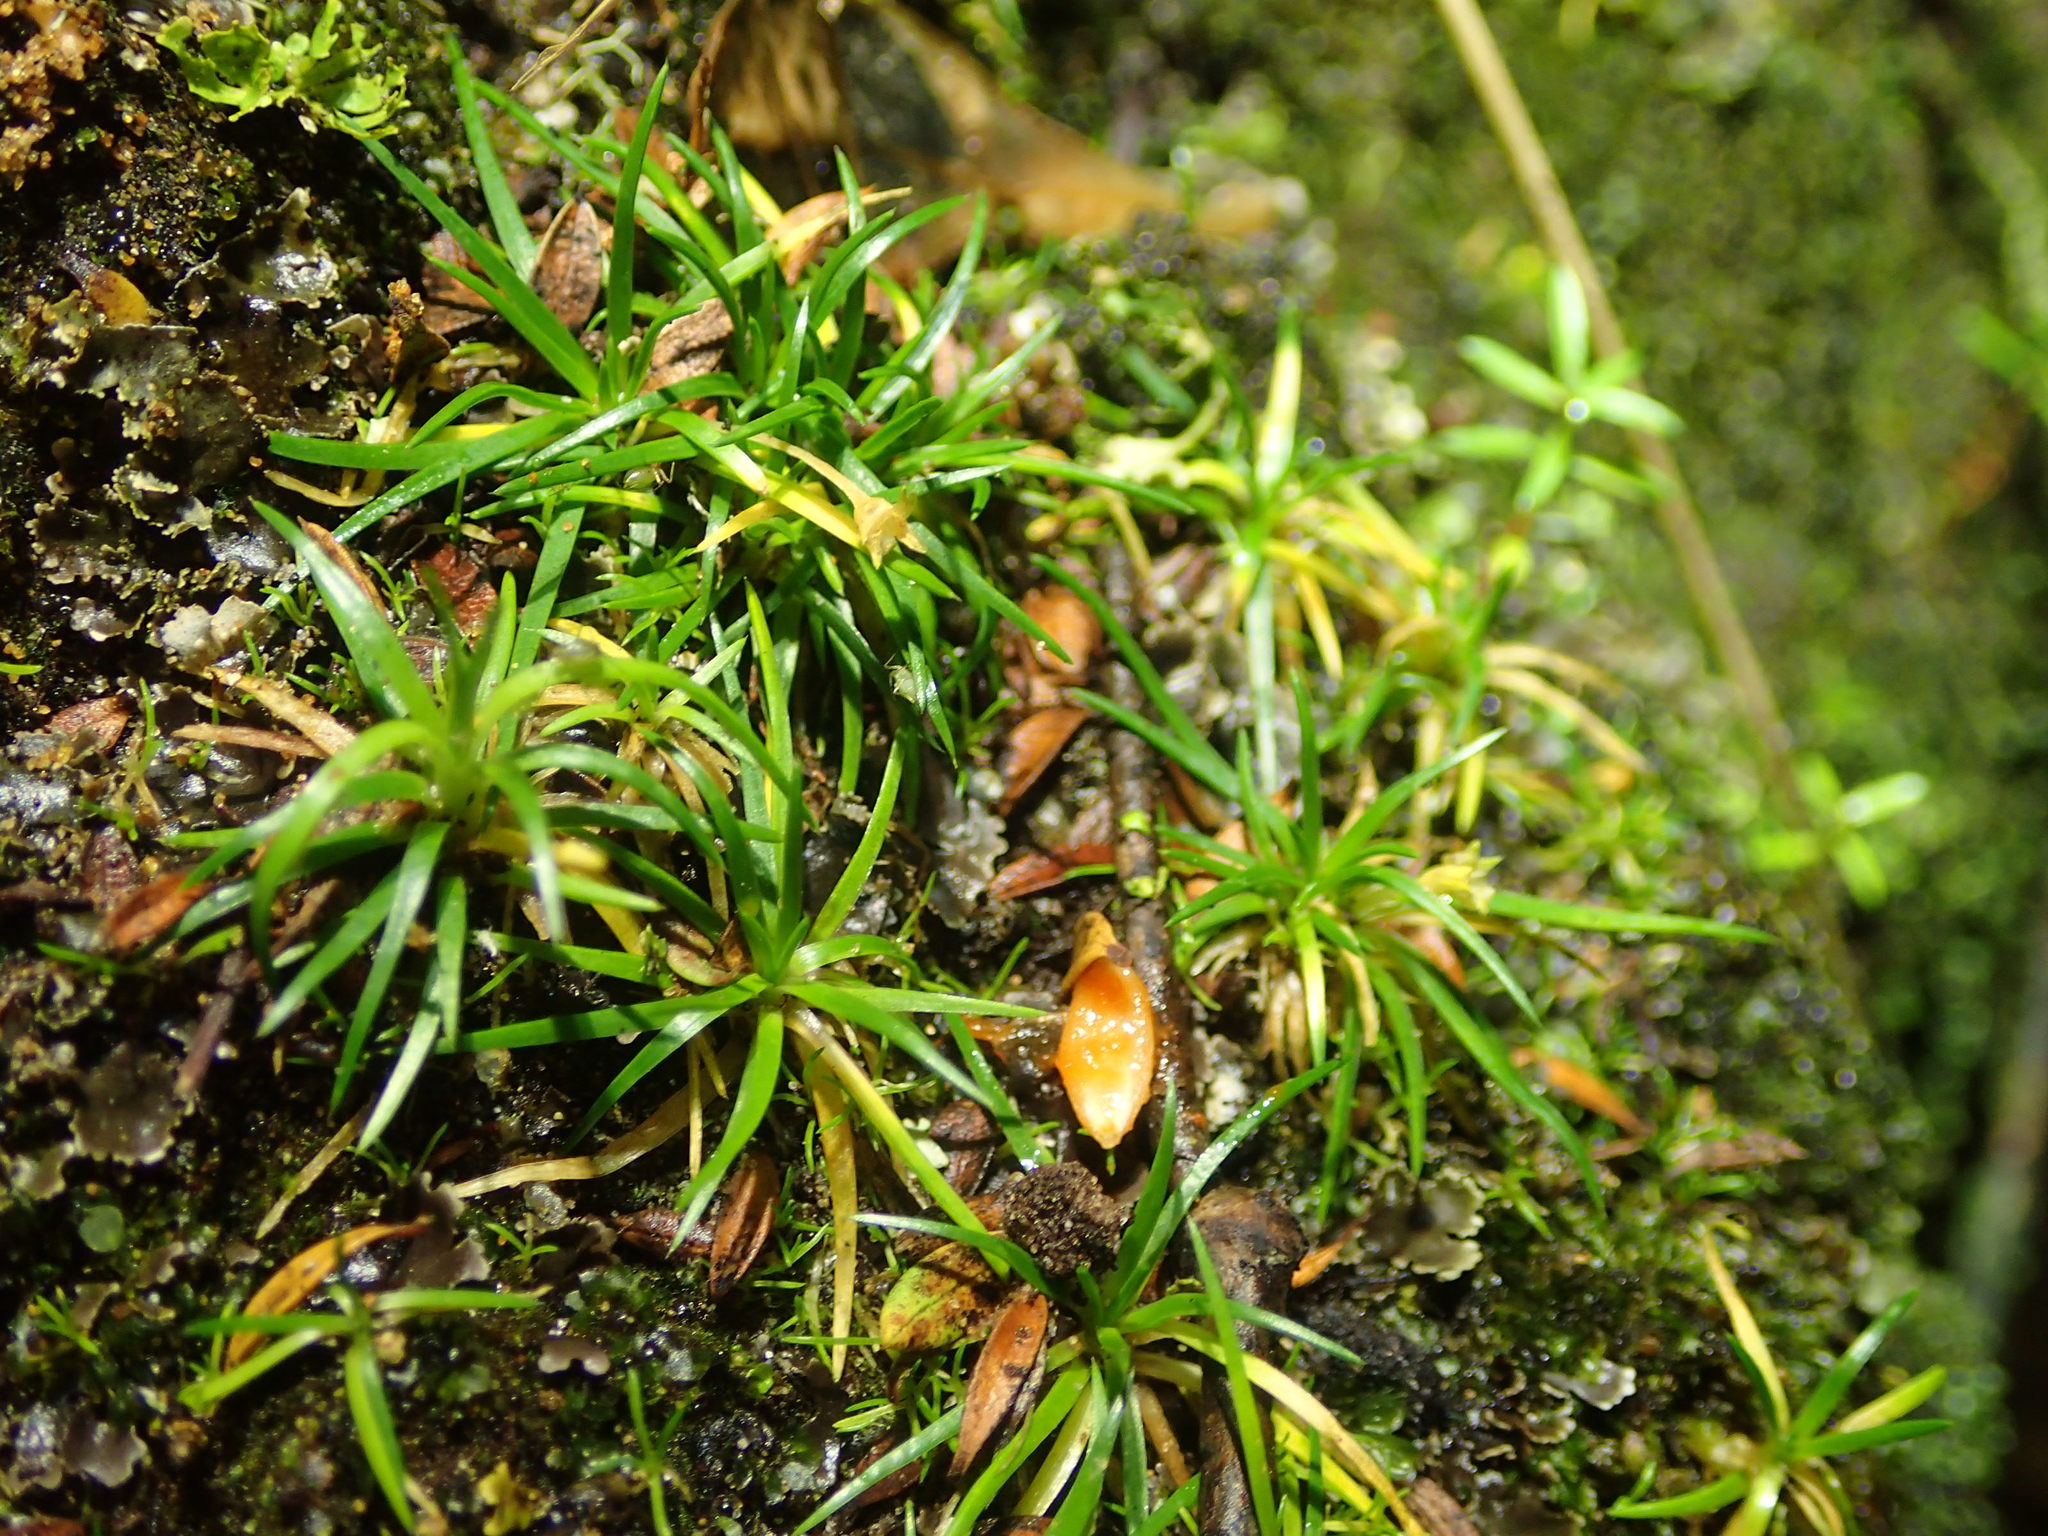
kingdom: Plantae
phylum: Tracheophyta
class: Magnoliopsida
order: Caryophyllales
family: Caryophyllaceae
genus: Colobanthus
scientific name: Colobanthus muelleri
